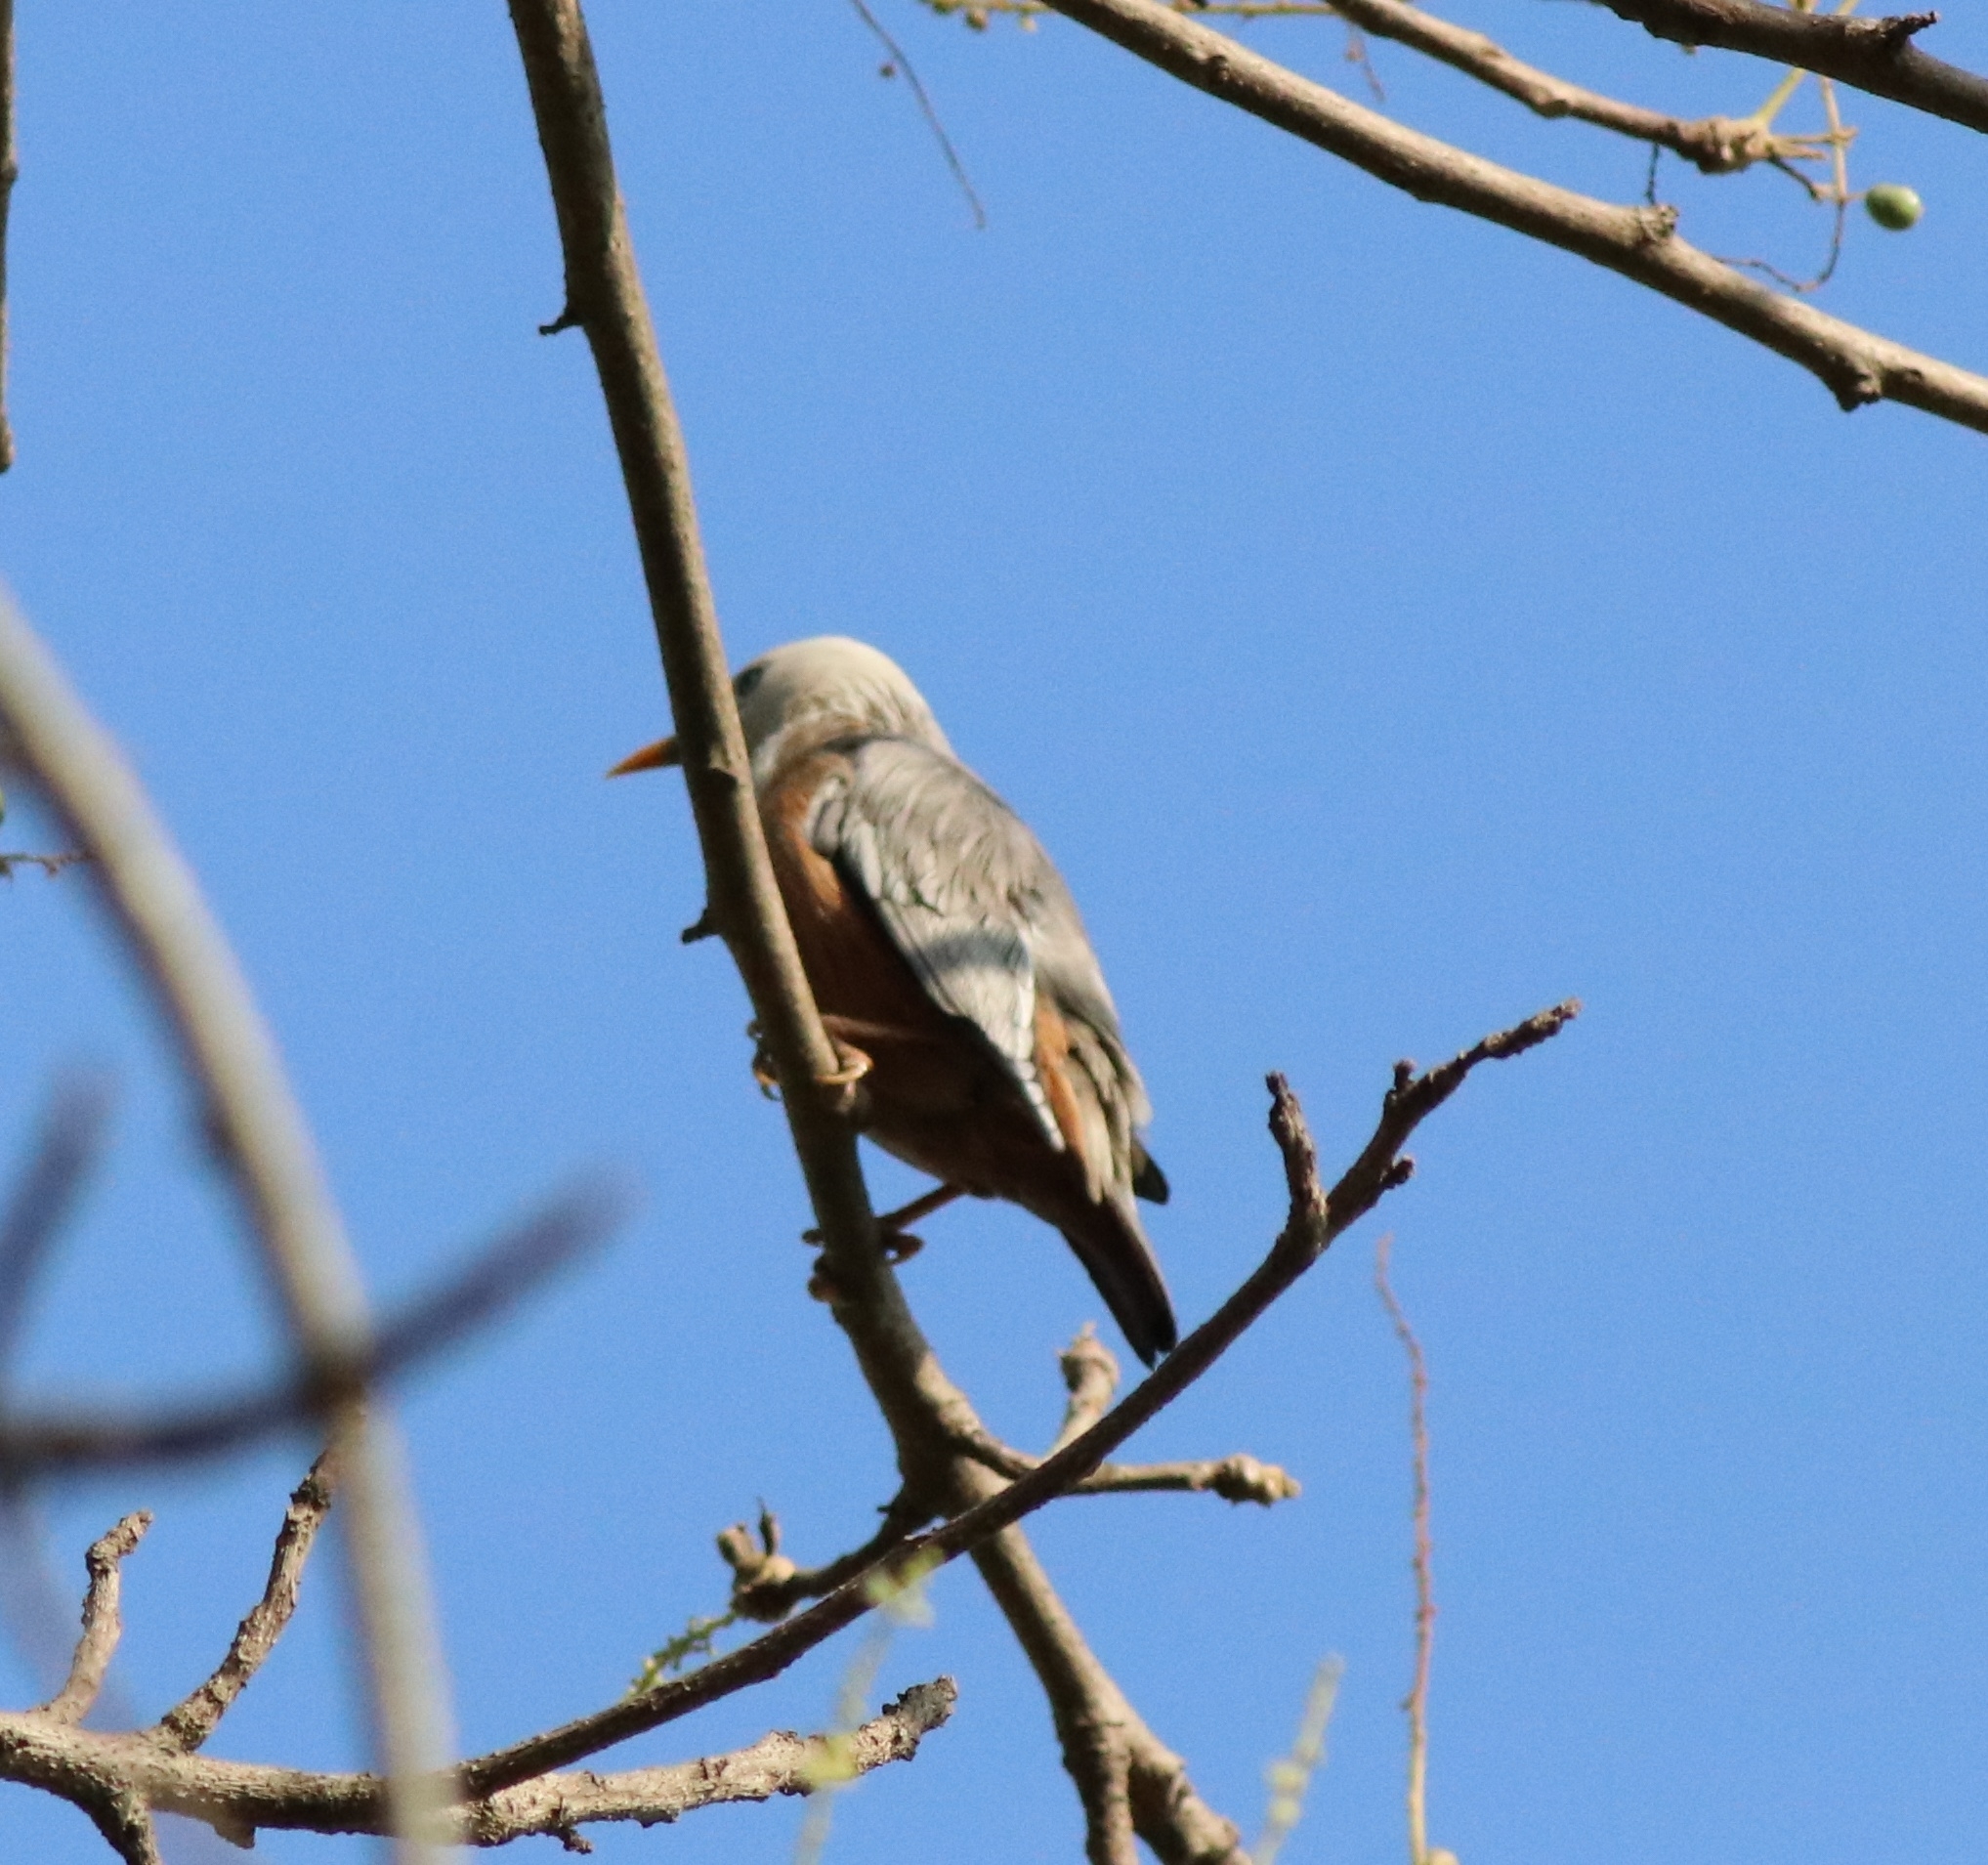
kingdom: Animalia
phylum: Chordata
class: Aves
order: Passeriformes
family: Sturnidae
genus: Sturnia
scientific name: Sturnia blythii
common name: Malabar starling
